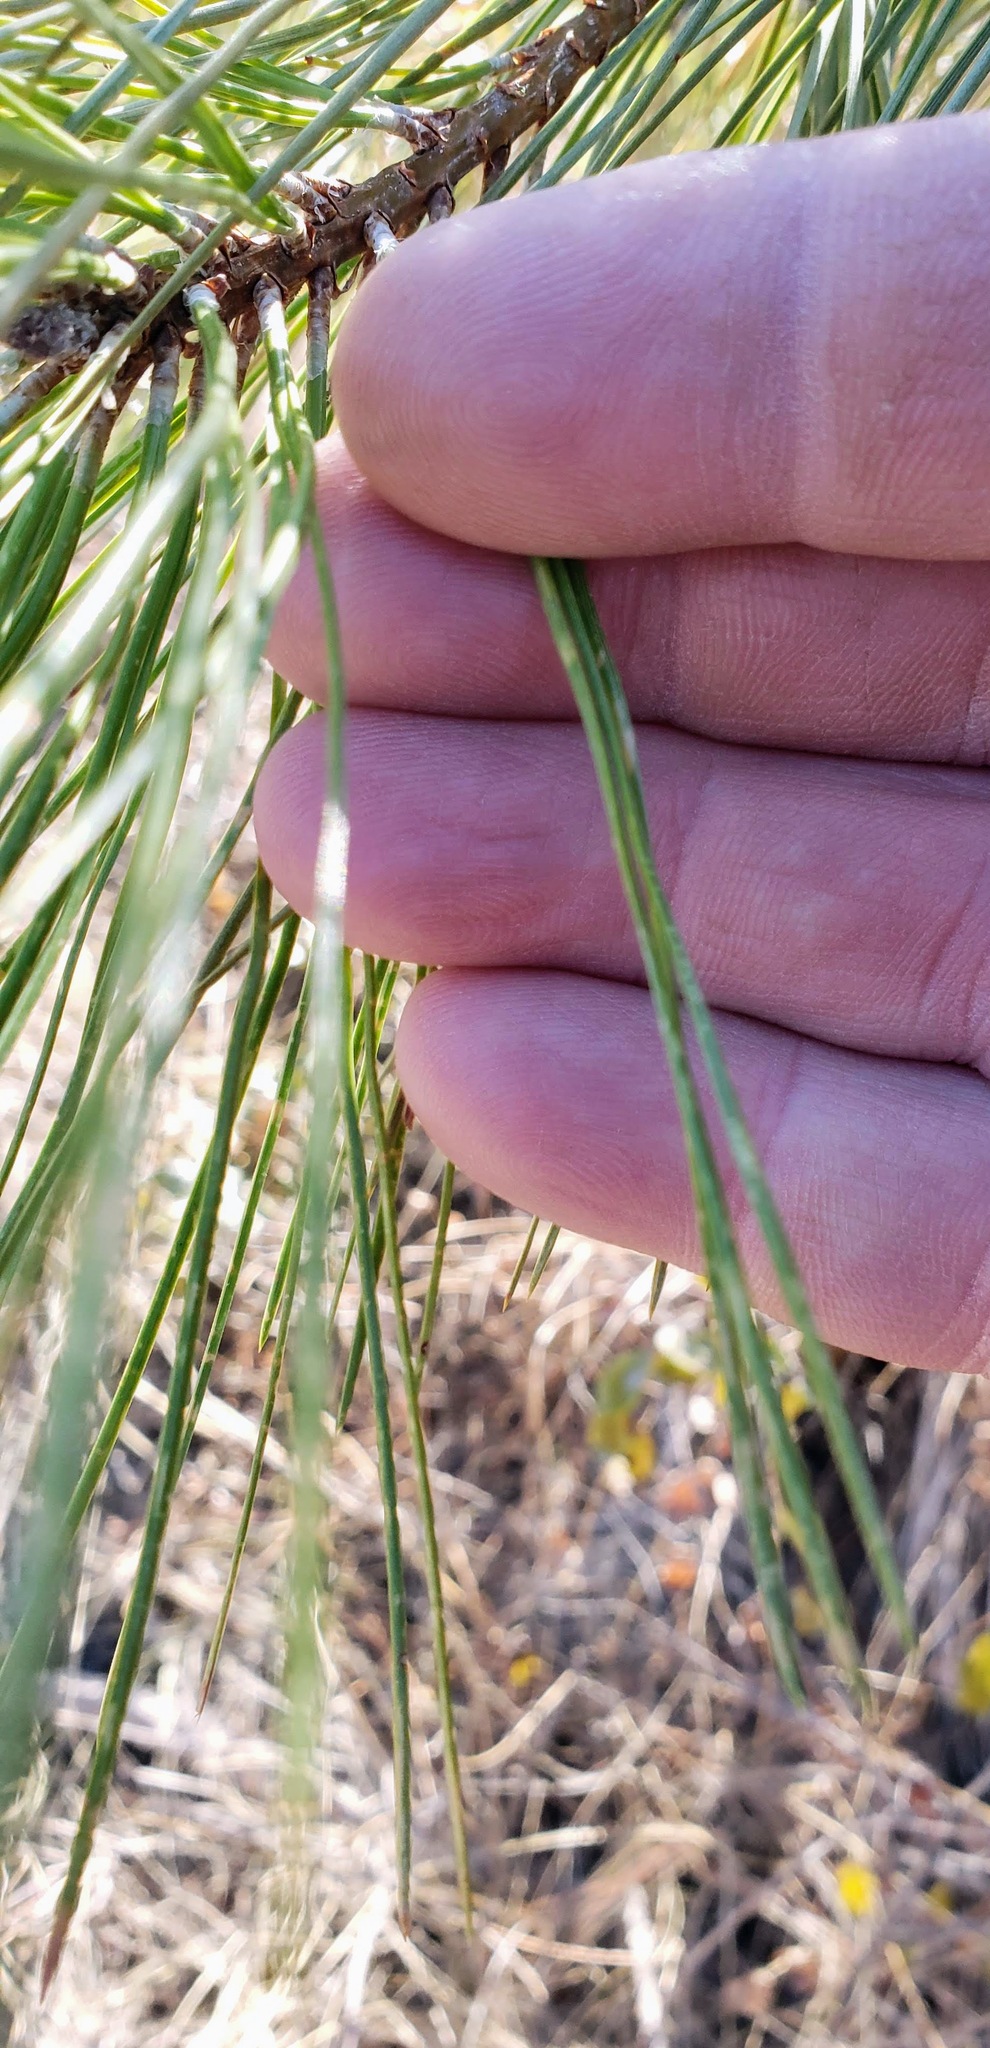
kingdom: Plantae
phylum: Tracheophyta
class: Pinopsida
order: Pinales
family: Pinaceae
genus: Pinus
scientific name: Pinus ponderosa
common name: Western yellow-pine
